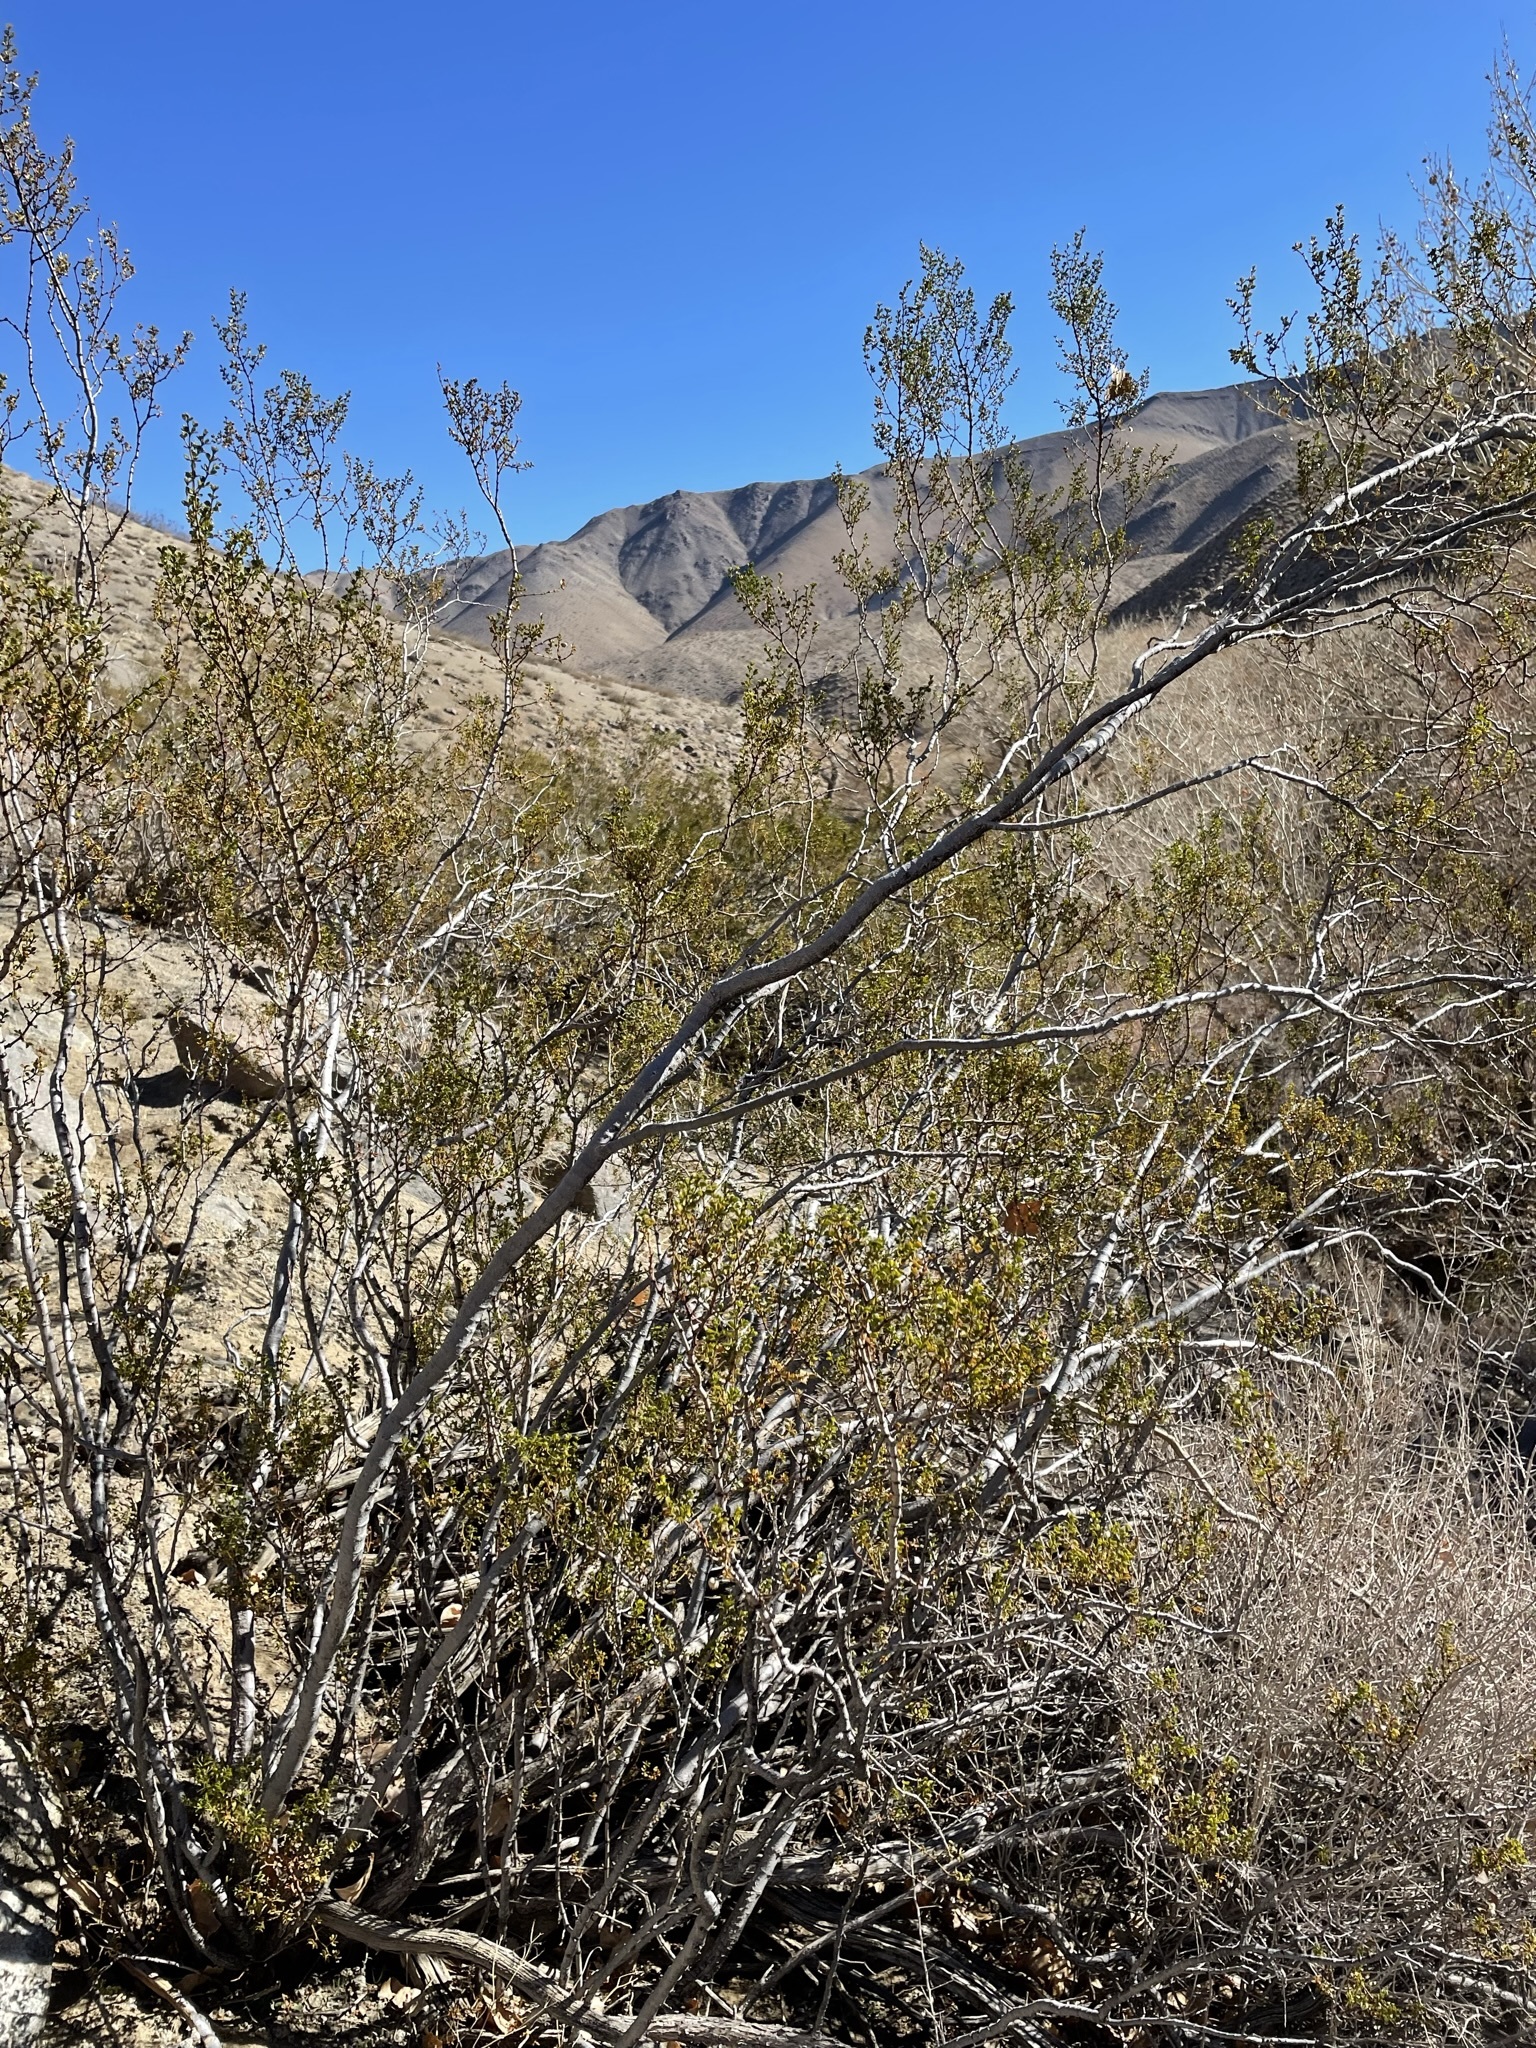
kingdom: Plantae
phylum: Tracheophyta
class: Magnoliopsida
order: Zygophyllales
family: Zygophyllaceae
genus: Larrea
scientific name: Larrea tridentata
